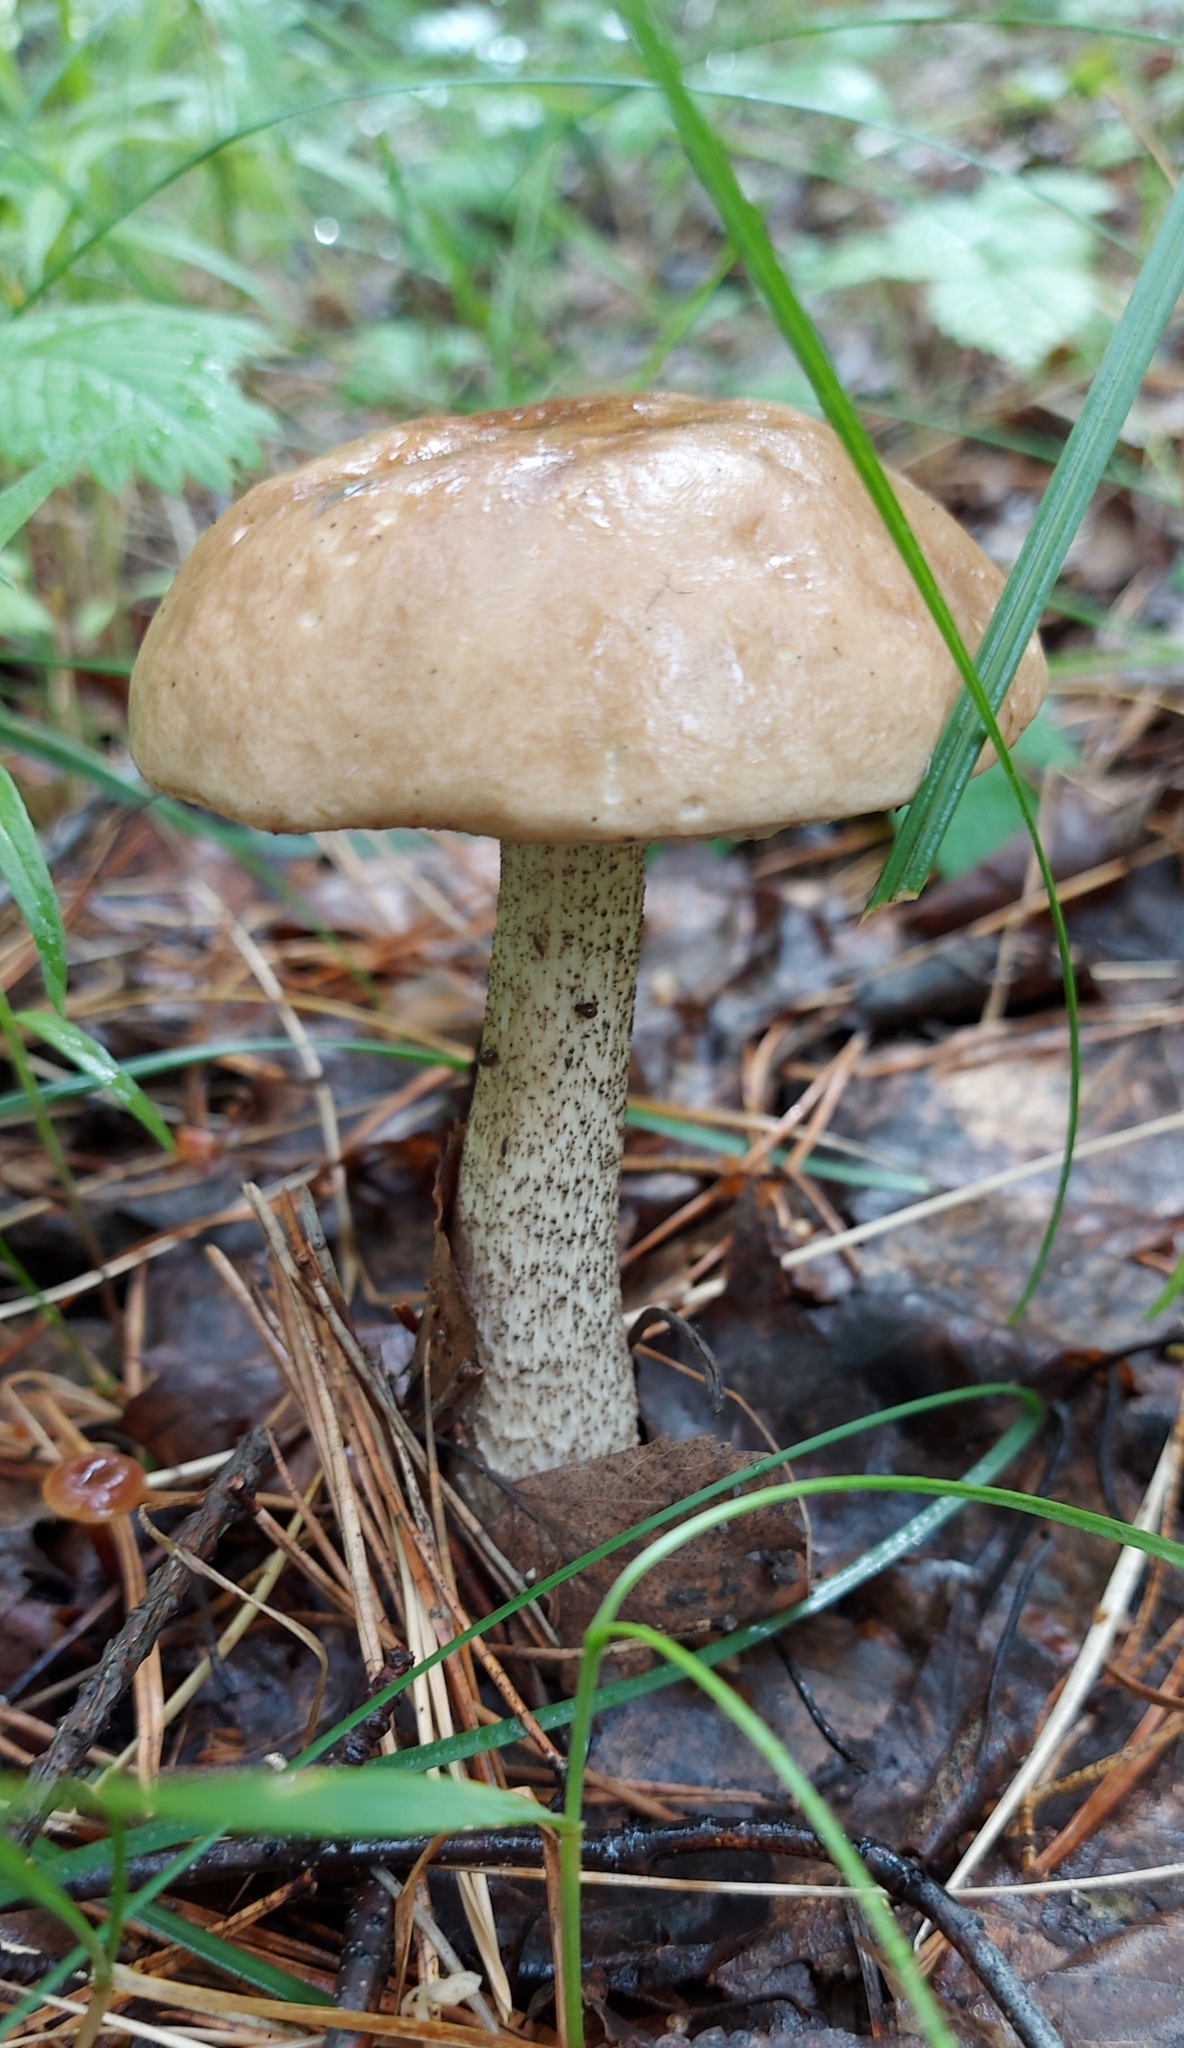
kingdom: Fungi
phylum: Basidiomycota
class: Agaricomycetes
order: Boletales
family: Boletaceae
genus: Leccinum
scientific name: Leccinum scabrum
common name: Blushing bolete
